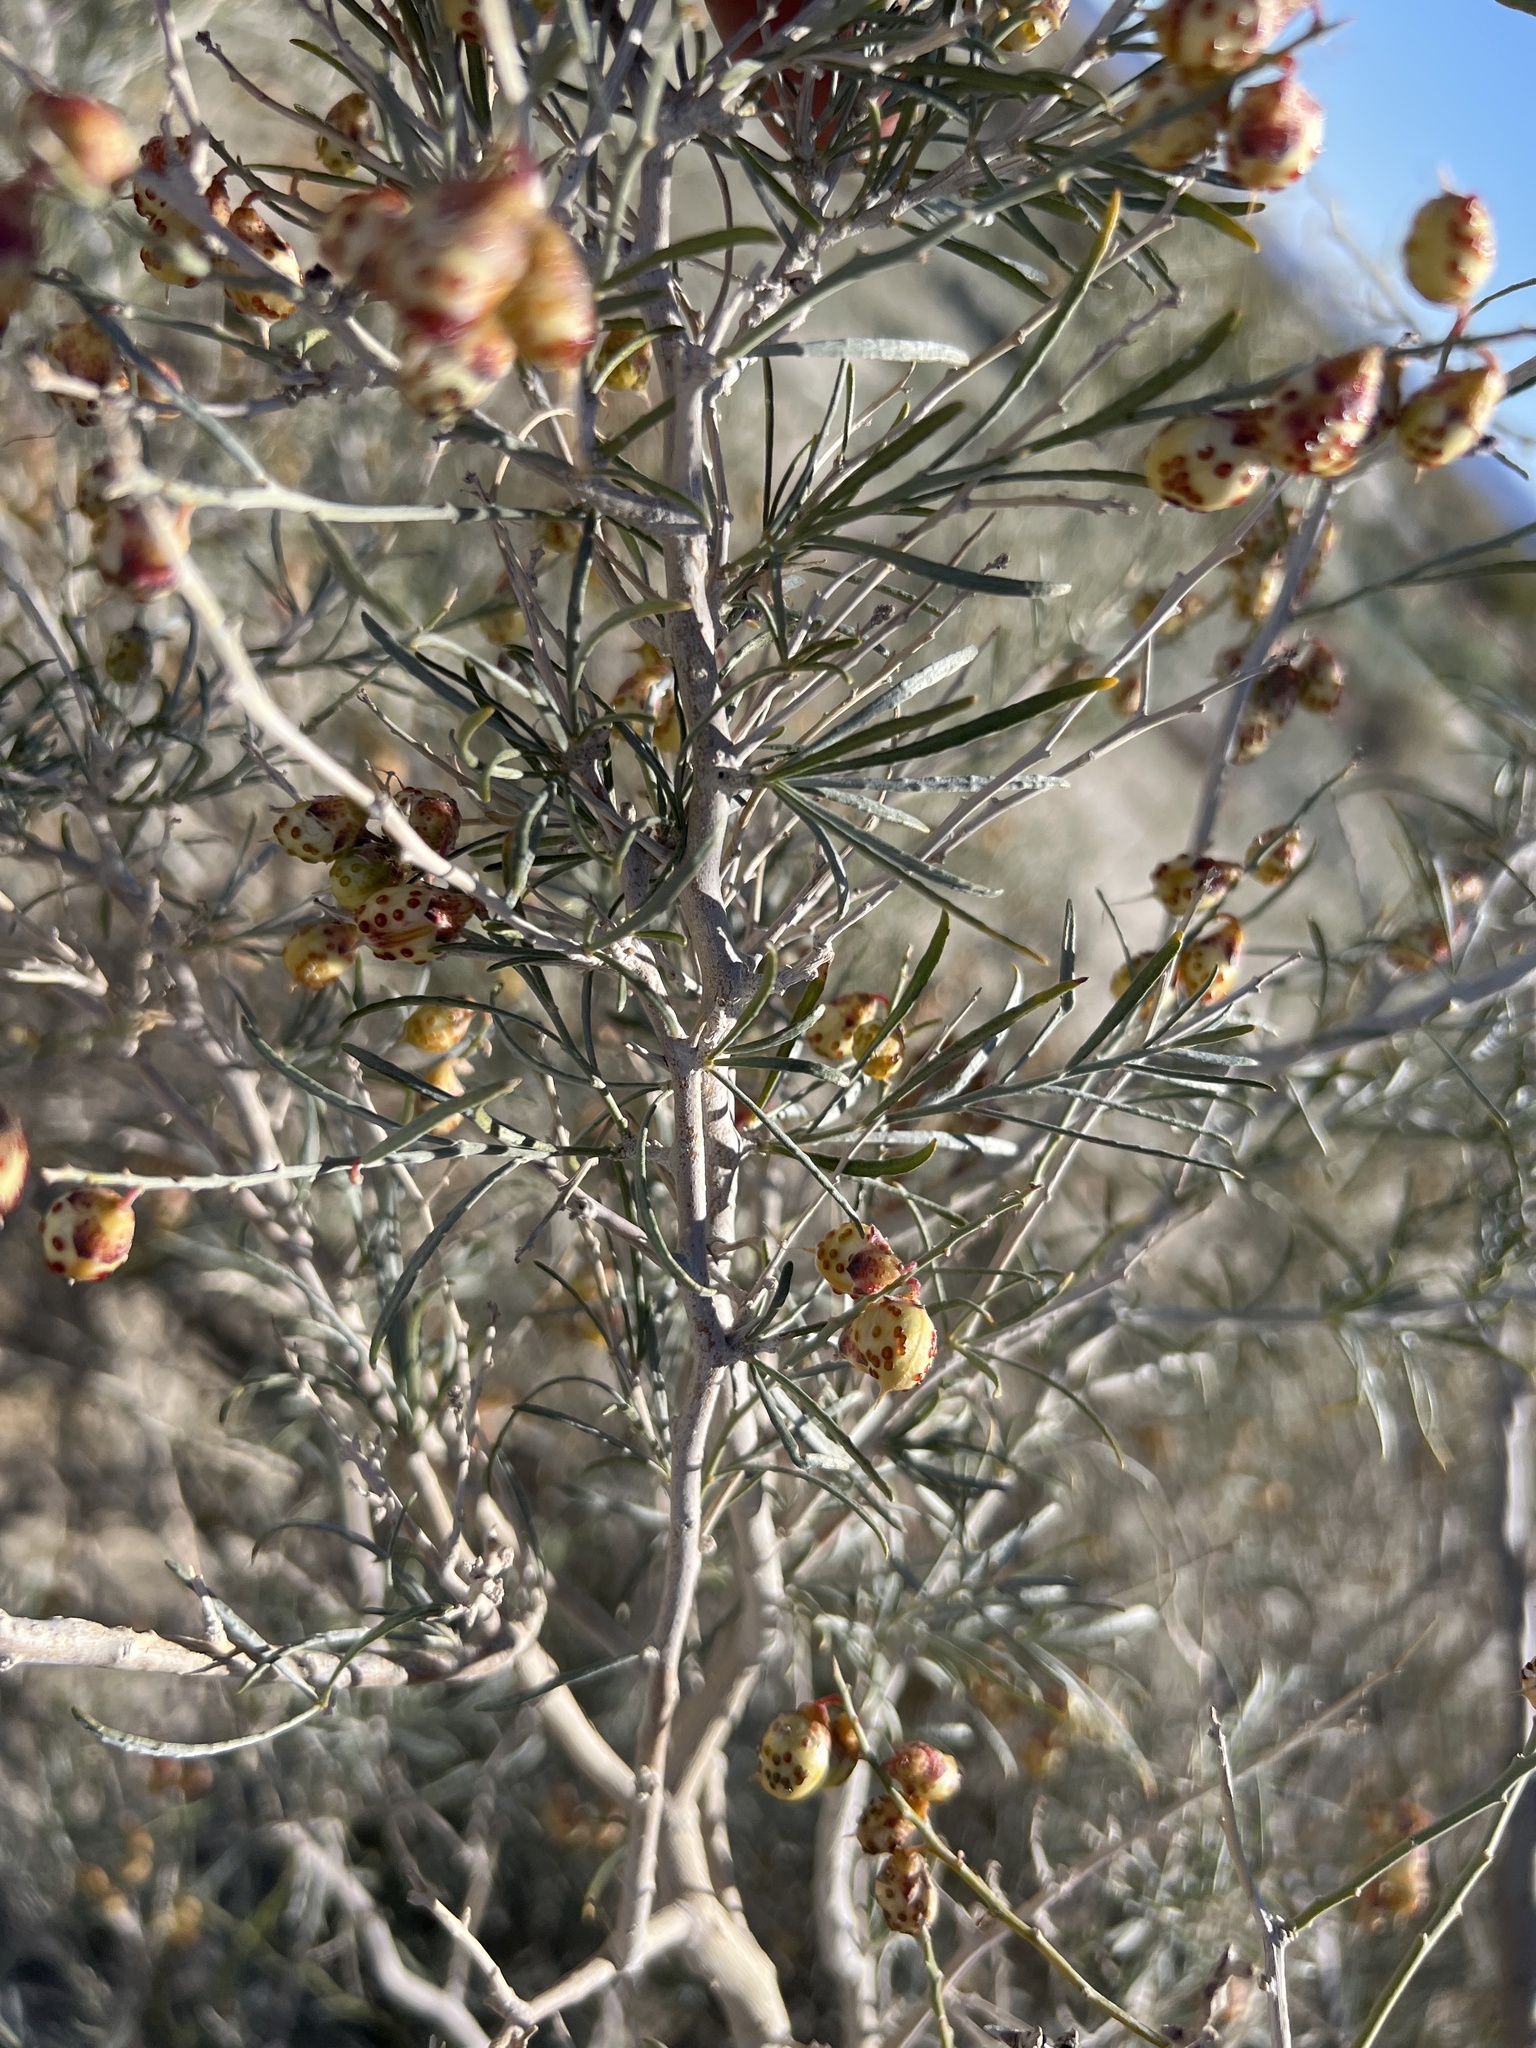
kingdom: Plantae
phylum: Tracheophyta
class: Magnoliopsida
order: Fabales
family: Fabaceae
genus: Psorothamnus
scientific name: Psorothamnus schottii
